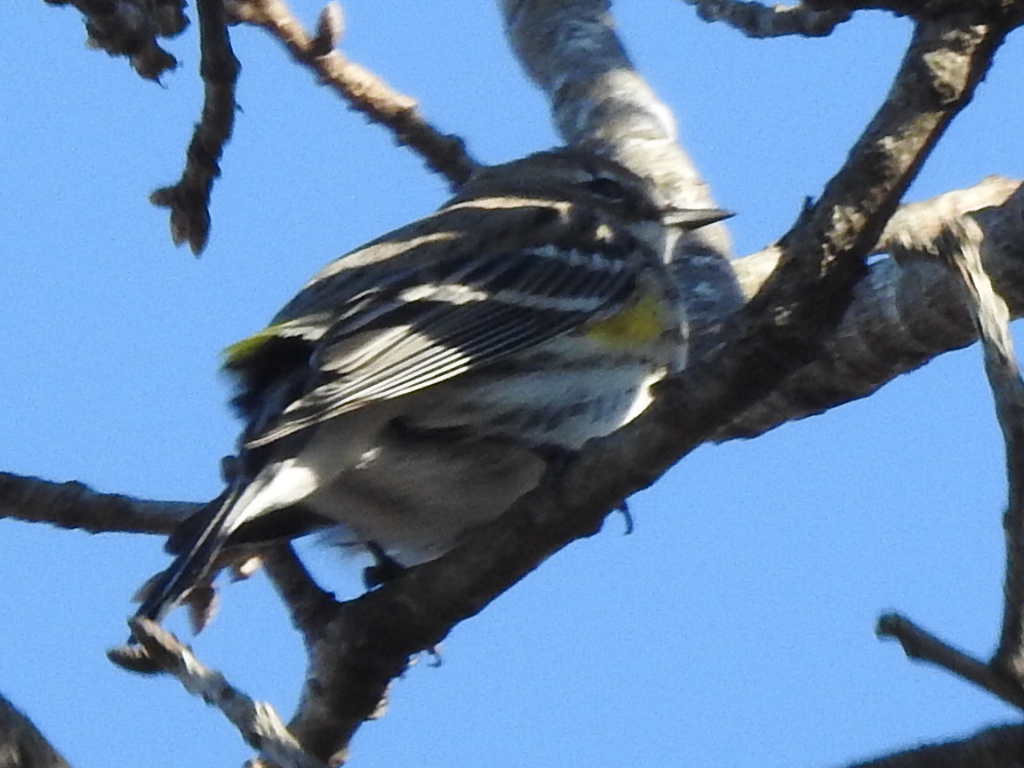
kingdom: Animalia
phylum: Chordata
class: Aves
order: Passeriformes
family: Parulidae
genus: Setophaga
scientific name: Setophaga coronata
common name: Myrtle warbler
